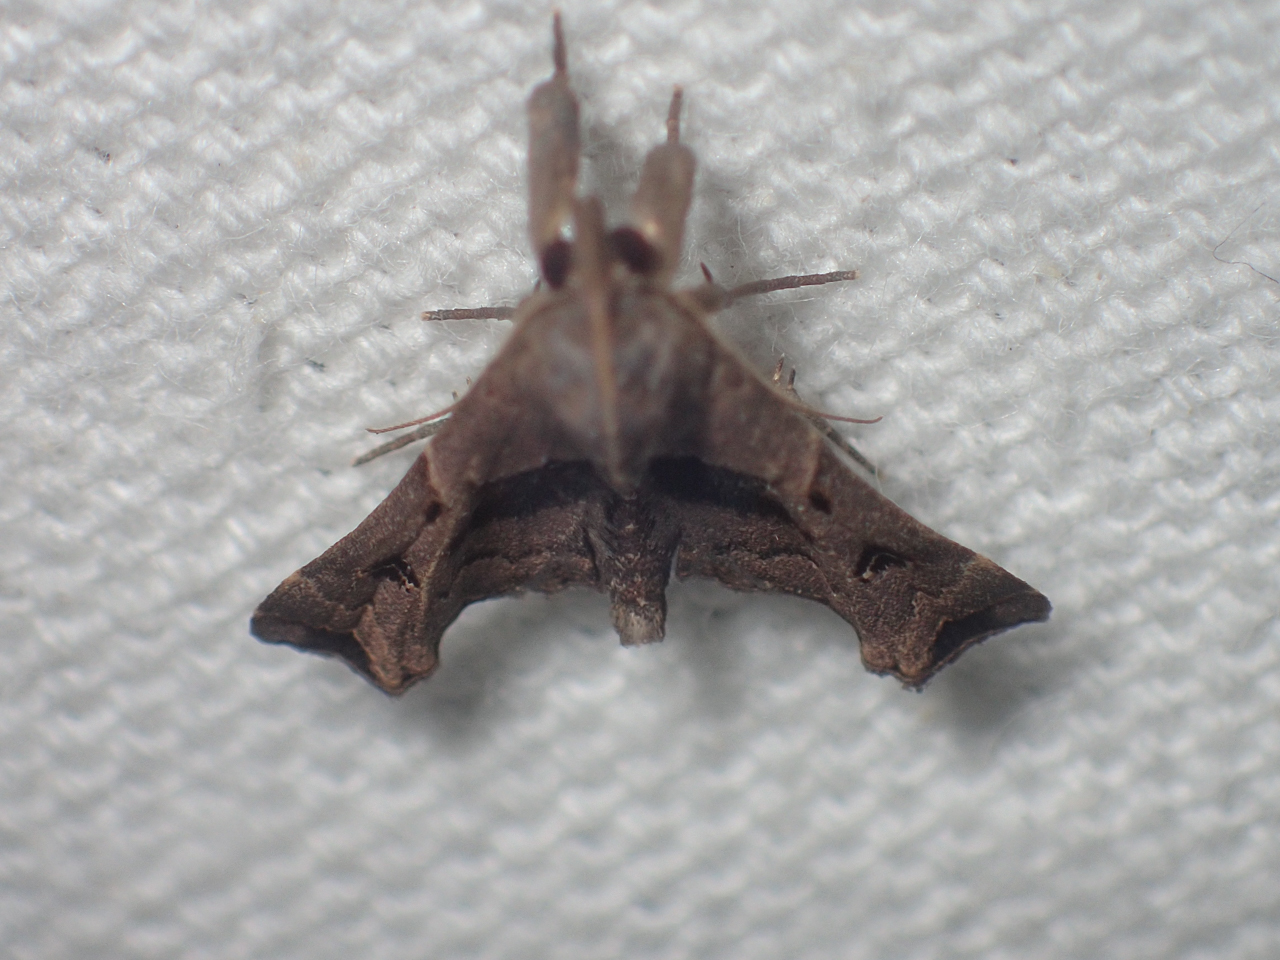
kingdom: Animalia
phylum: Arthropoda
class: Insecta
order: Lepidoptera
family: Erebidae
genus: Palthis
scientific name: Palthis asopialis
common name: Faint-spotted palthis moth
